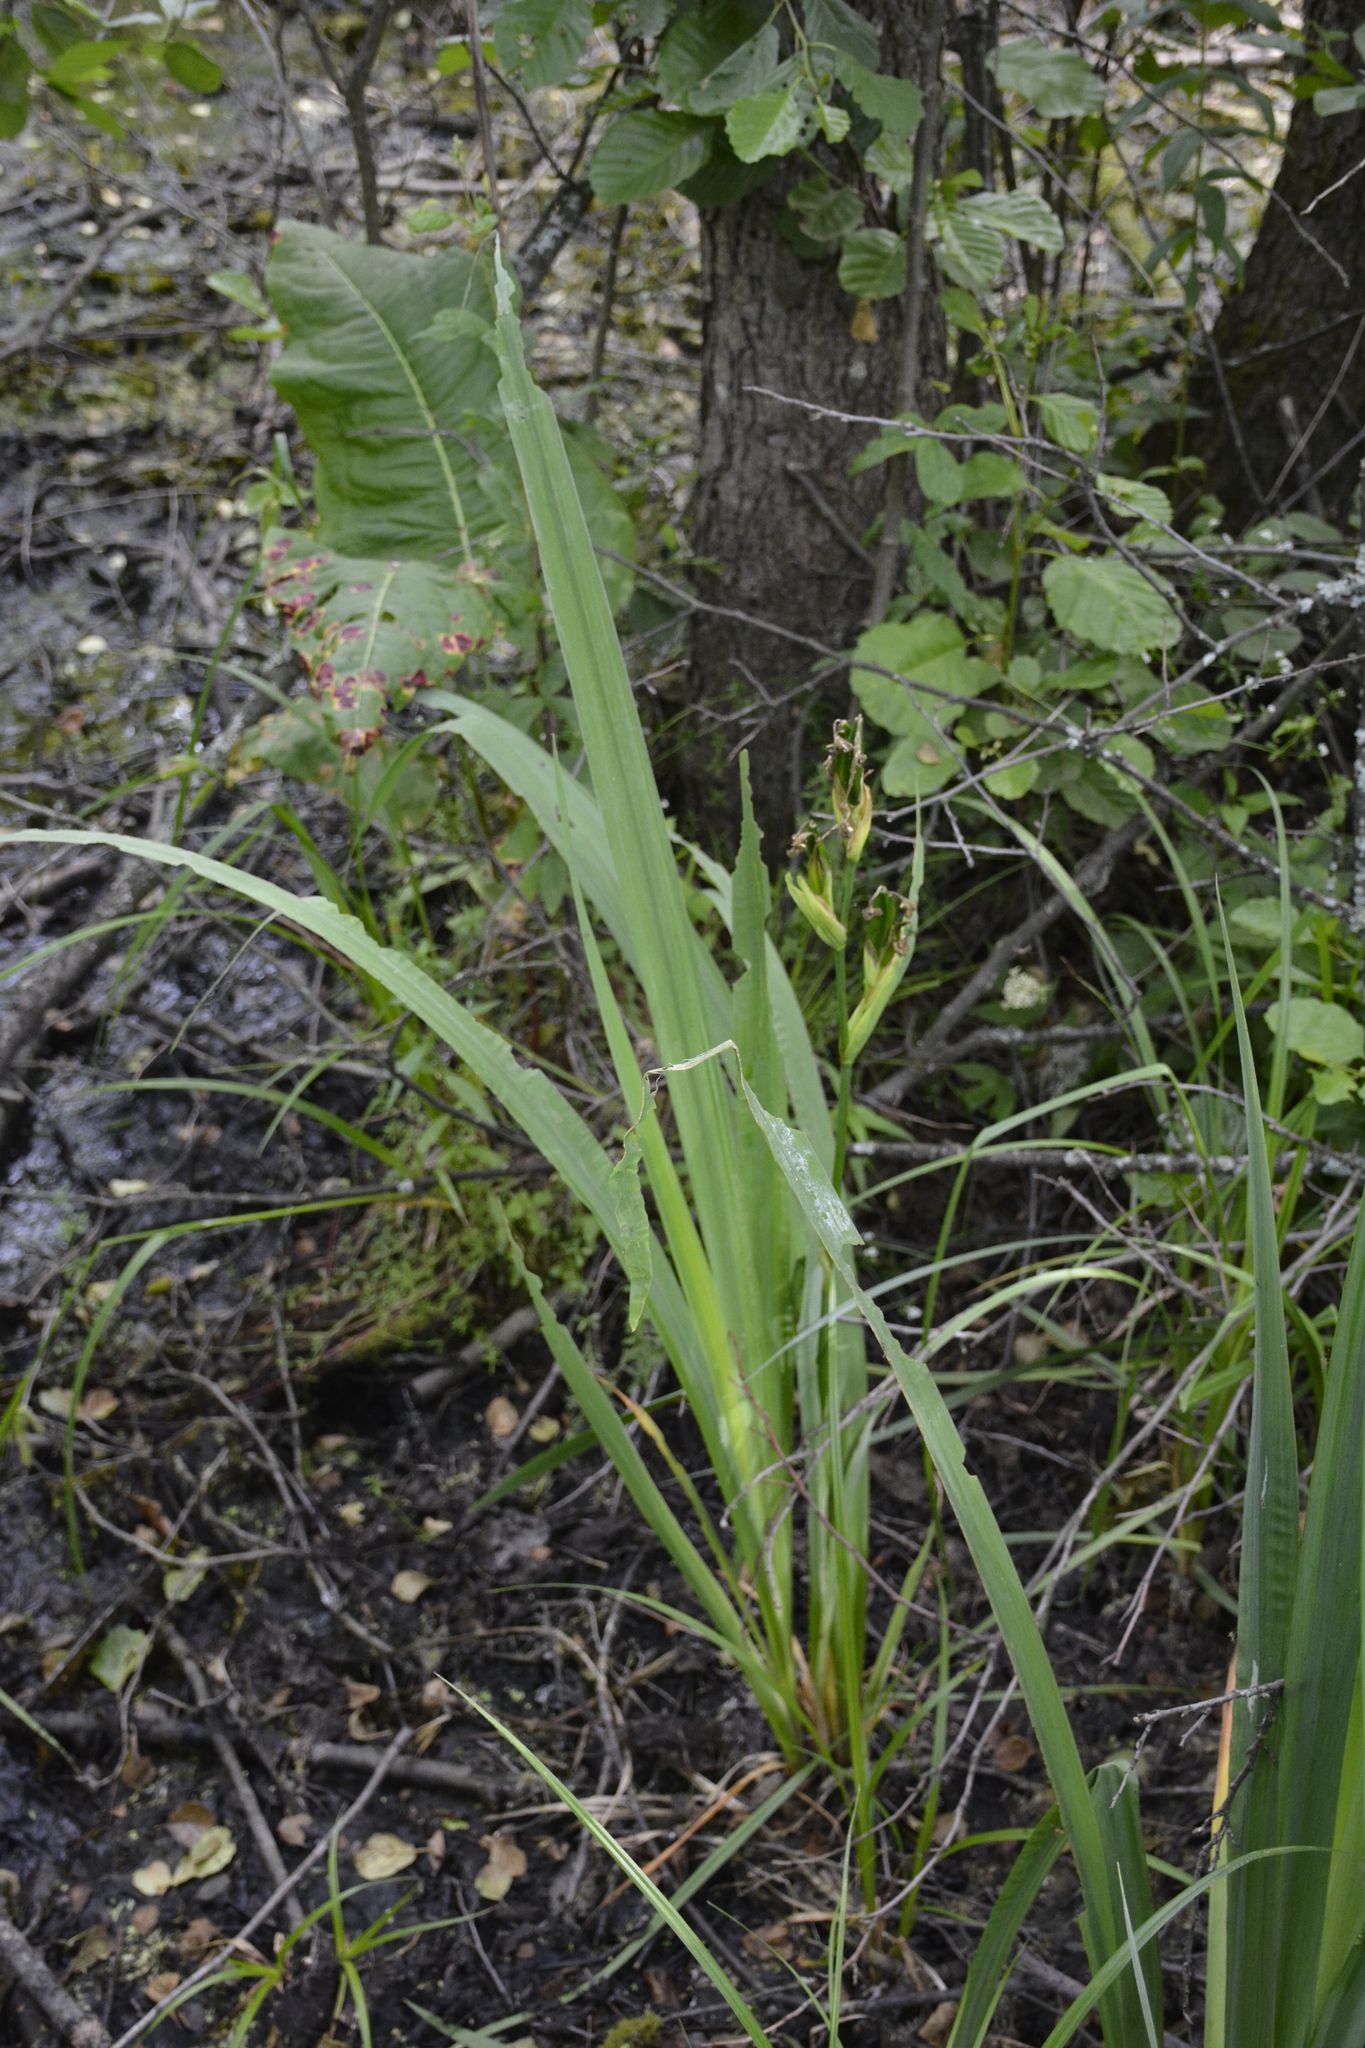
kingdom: Plantae
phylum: Tracheophyta
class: Liliopsida
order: Asparagales
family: Iridaceae
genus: Iris
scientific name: Iris pseudacorus
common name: Yellow flag
